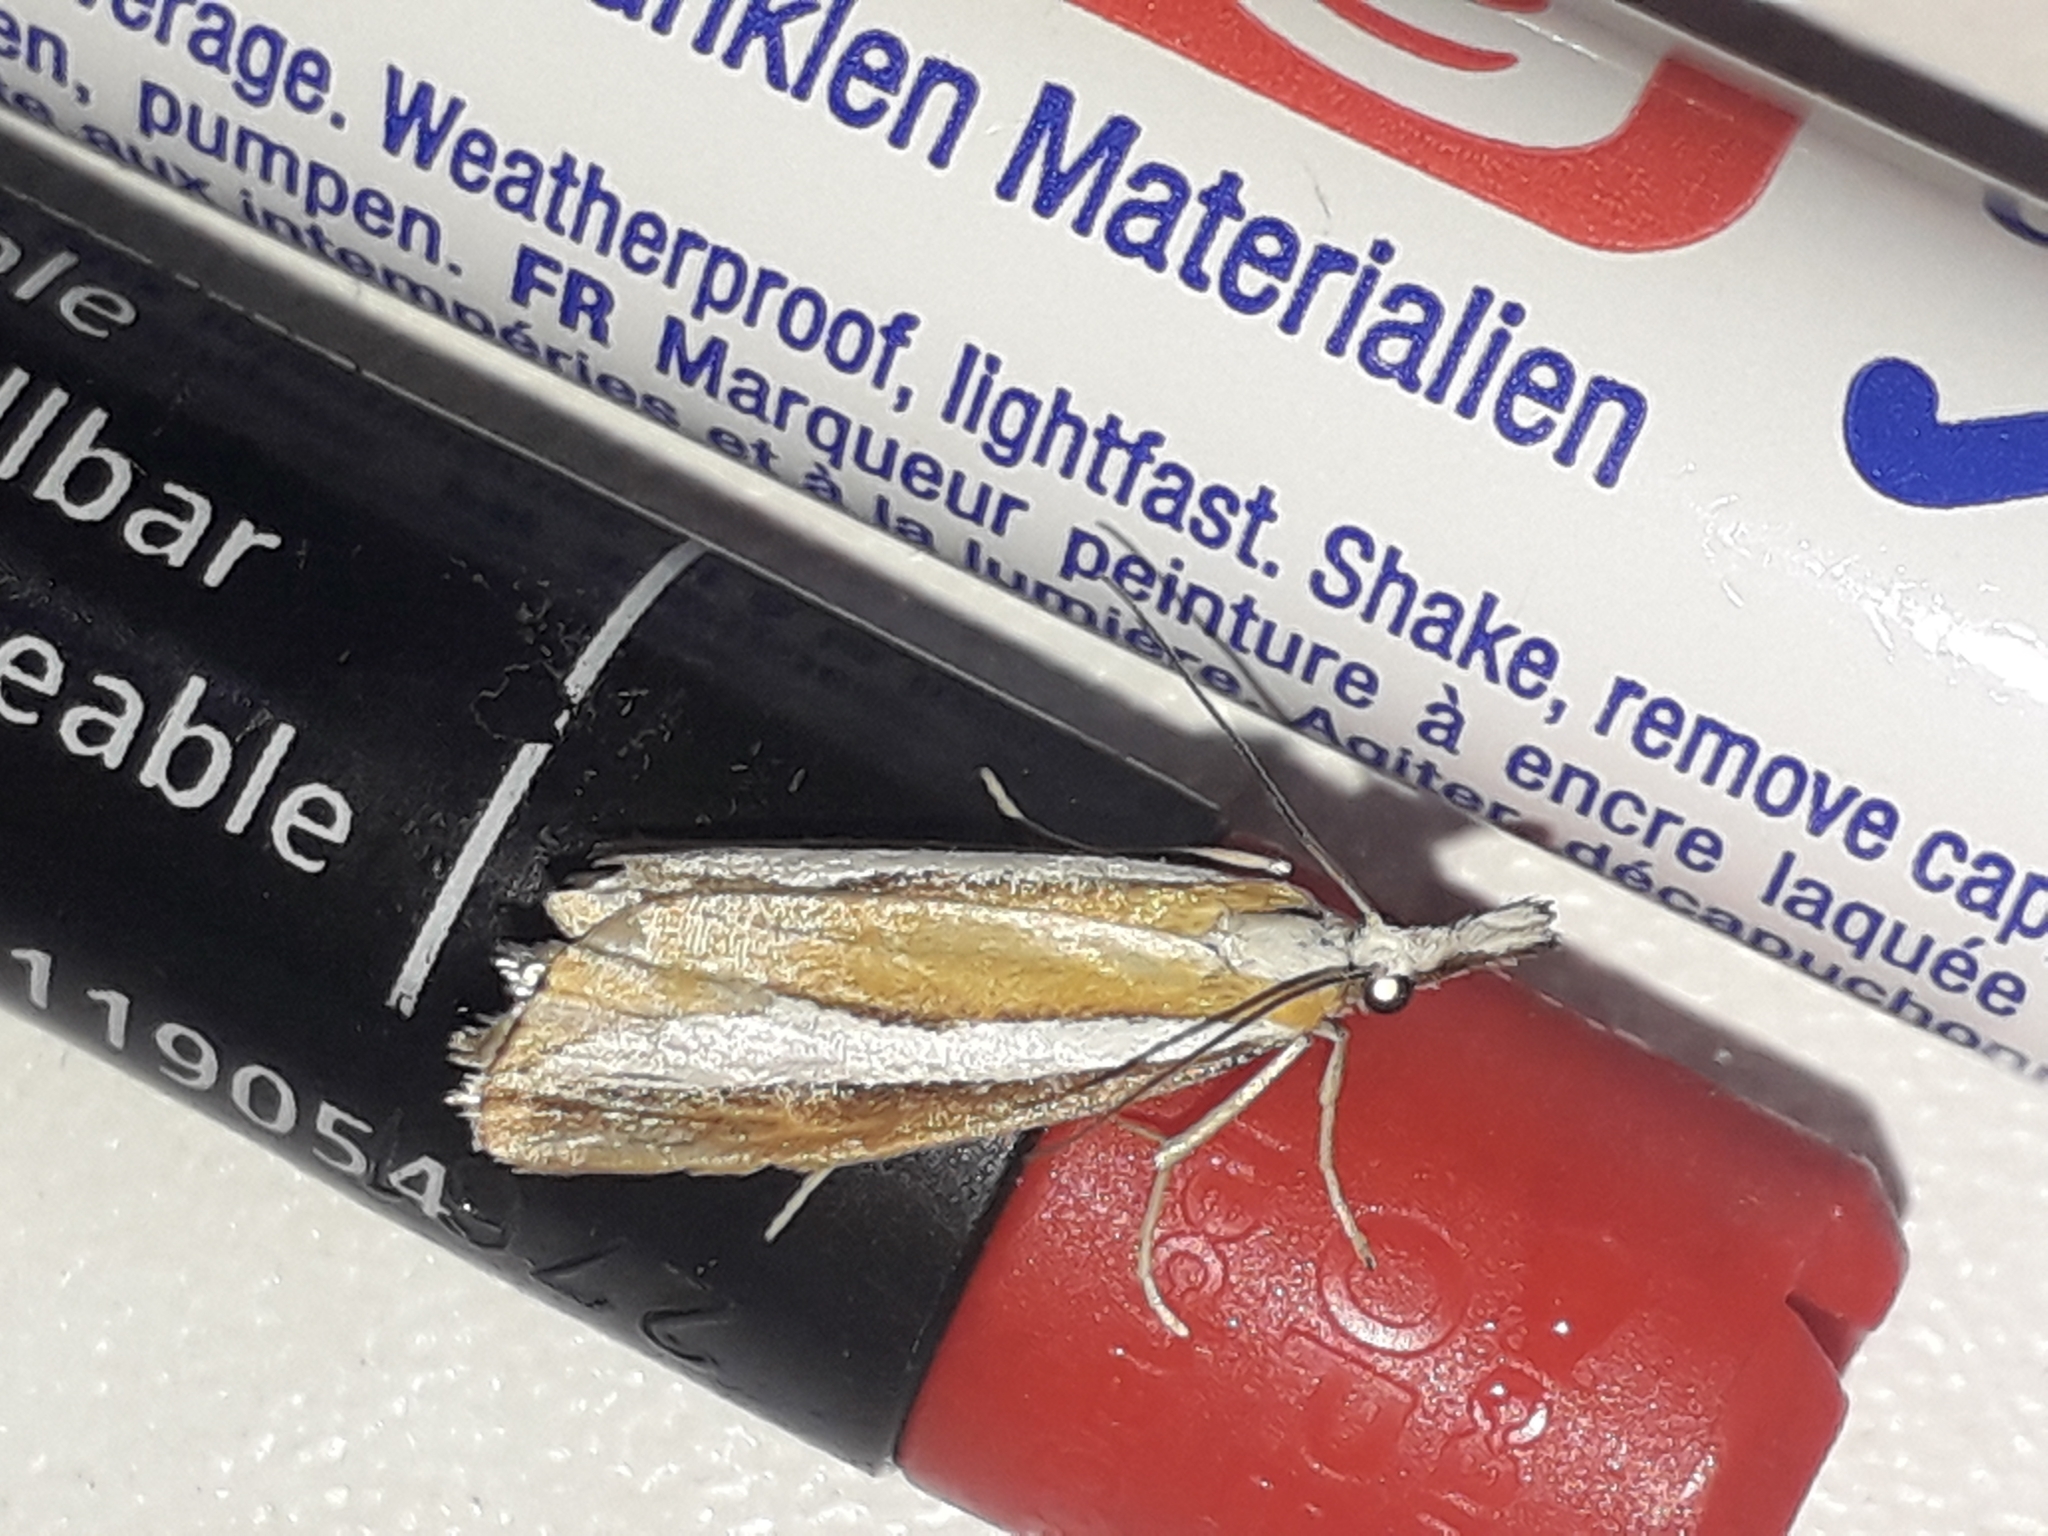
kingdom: Animalia
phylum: Arthropoda
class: Insecta
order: Lepidoptera
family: Crambidae
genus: Catoptria
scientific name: Catoptria pyramidellus
